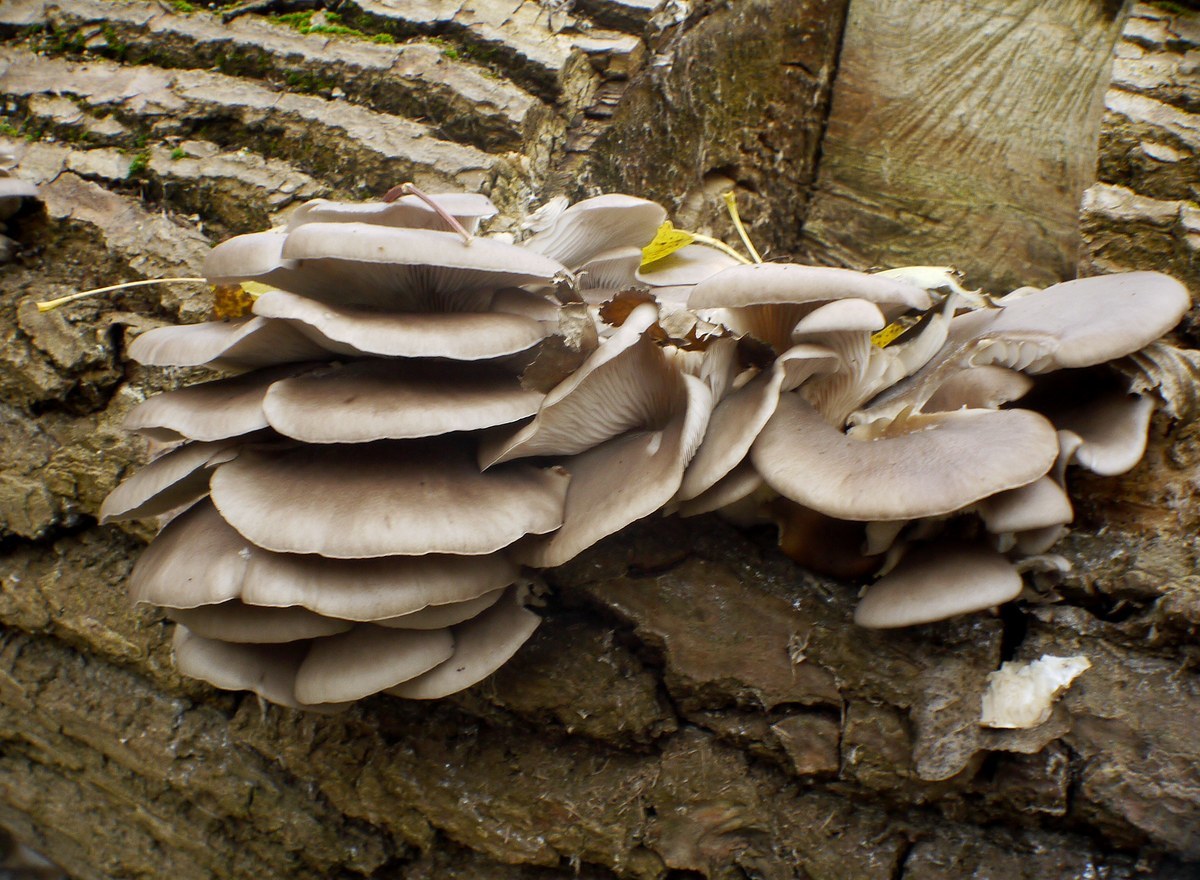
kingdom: Fungi
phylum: Basidiomycota
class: Agaricomycetes
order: Agaricales
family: Pleurotaceae
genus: Pleurotus
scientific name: Pleurotus ostreatus
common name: Oyster mushroom
